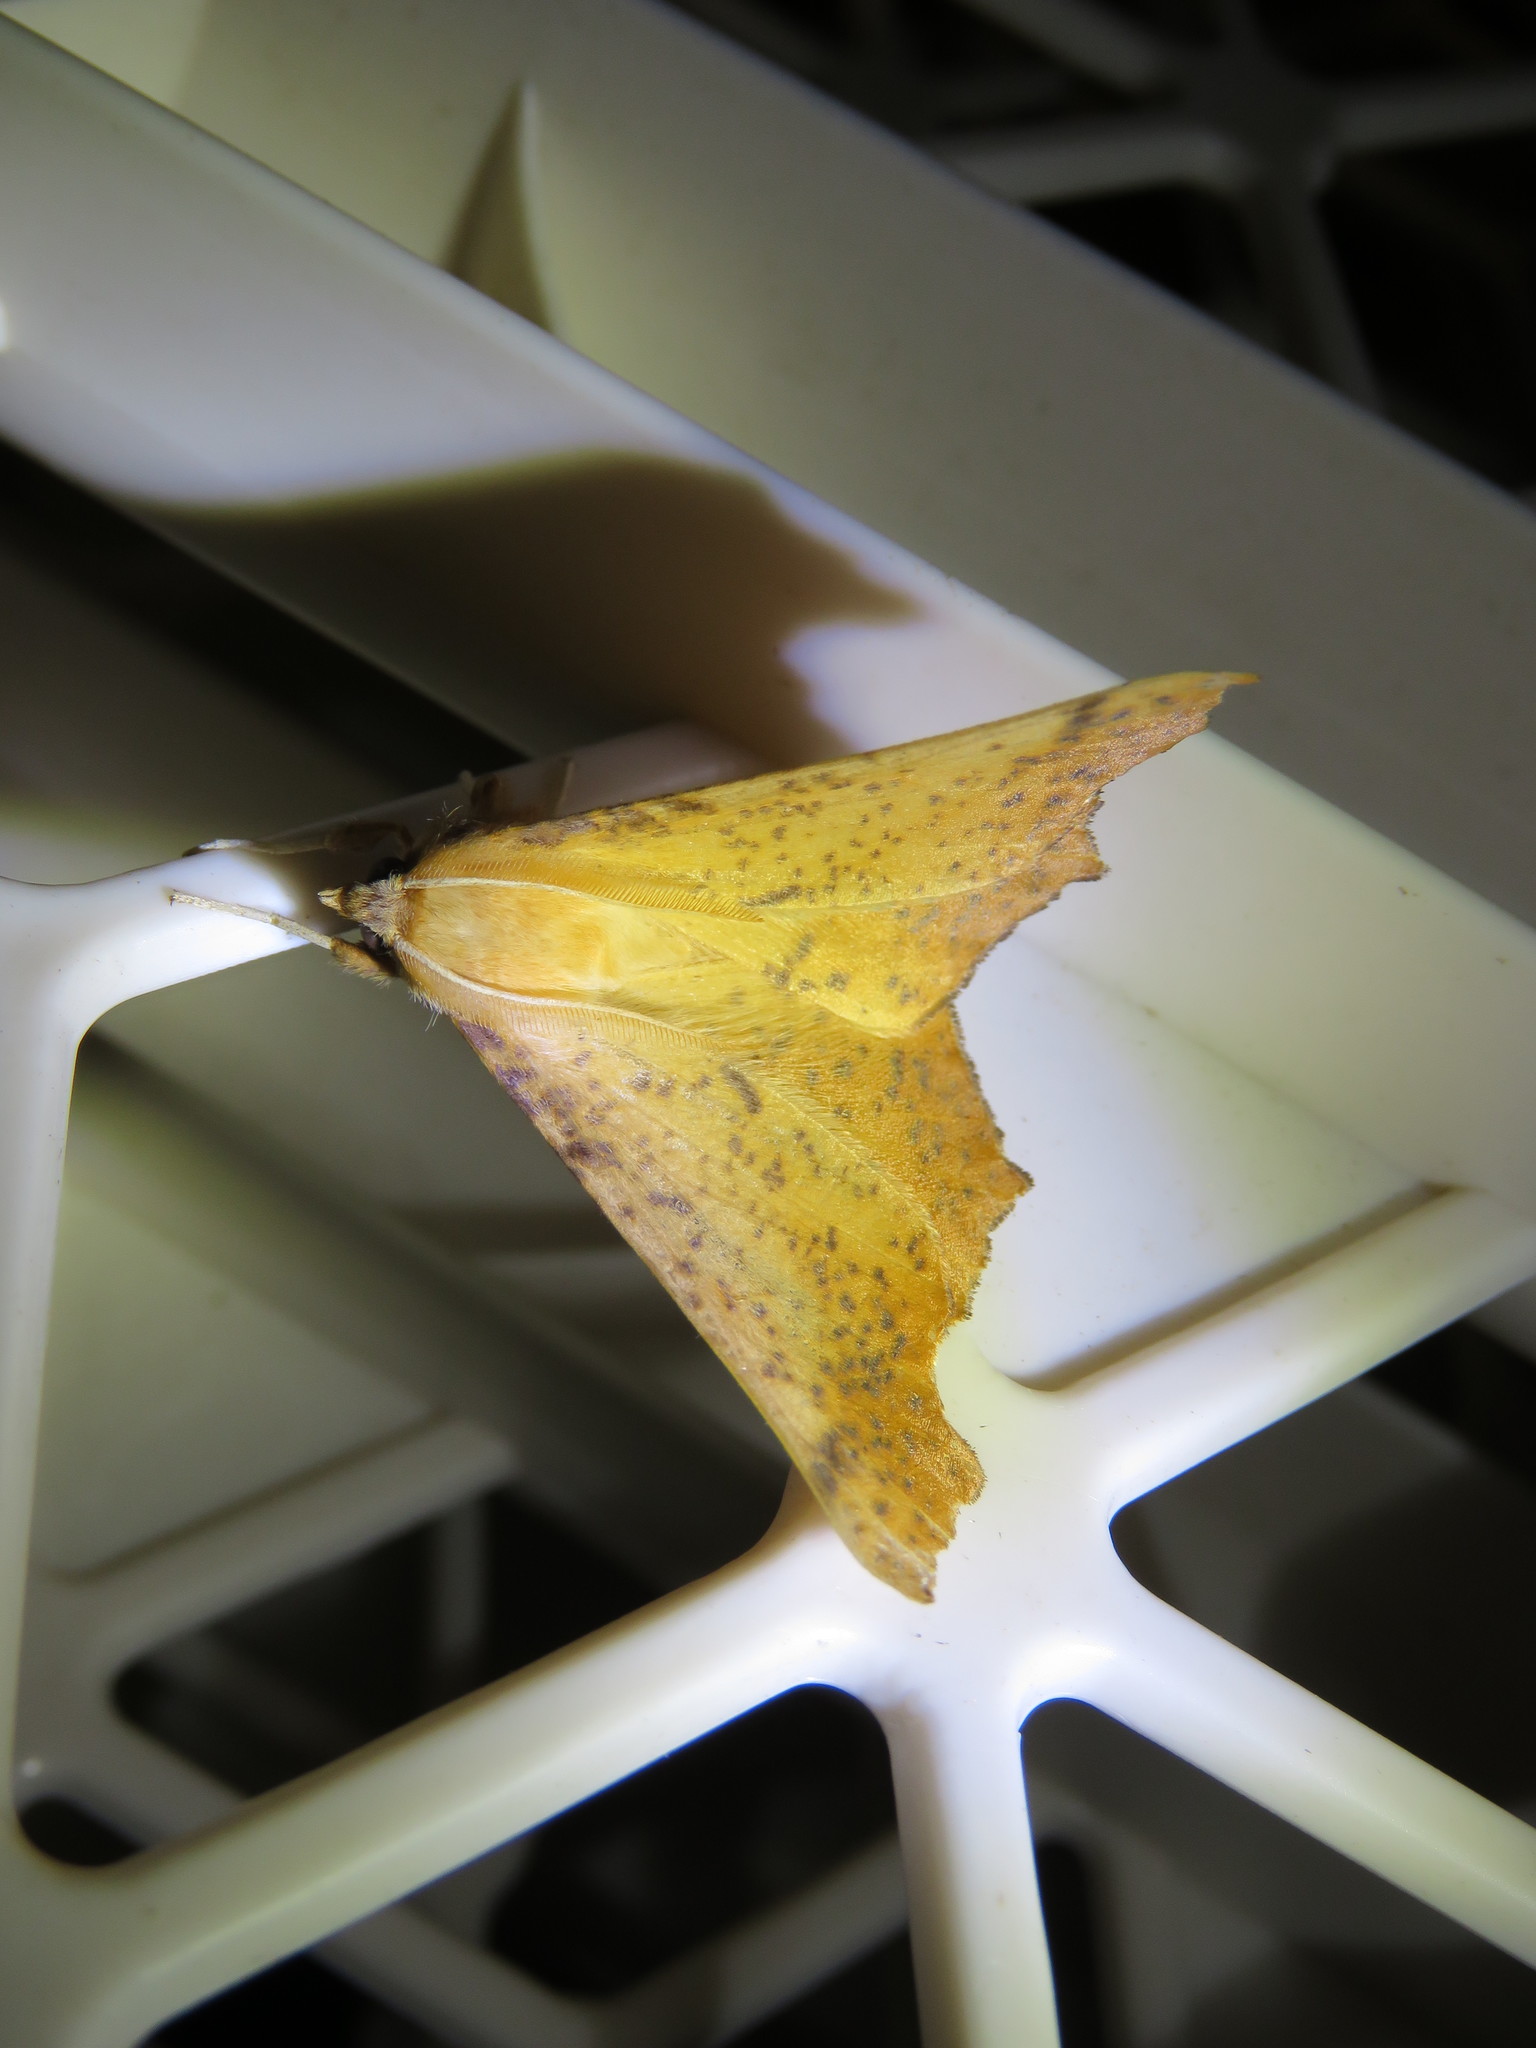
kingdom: Animalia
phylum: Arthropoda
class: Insecta
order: Lepidoptera
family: Geometridae
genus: Ennomos
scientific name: Ennomos magnaria
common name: Maple spanworm
